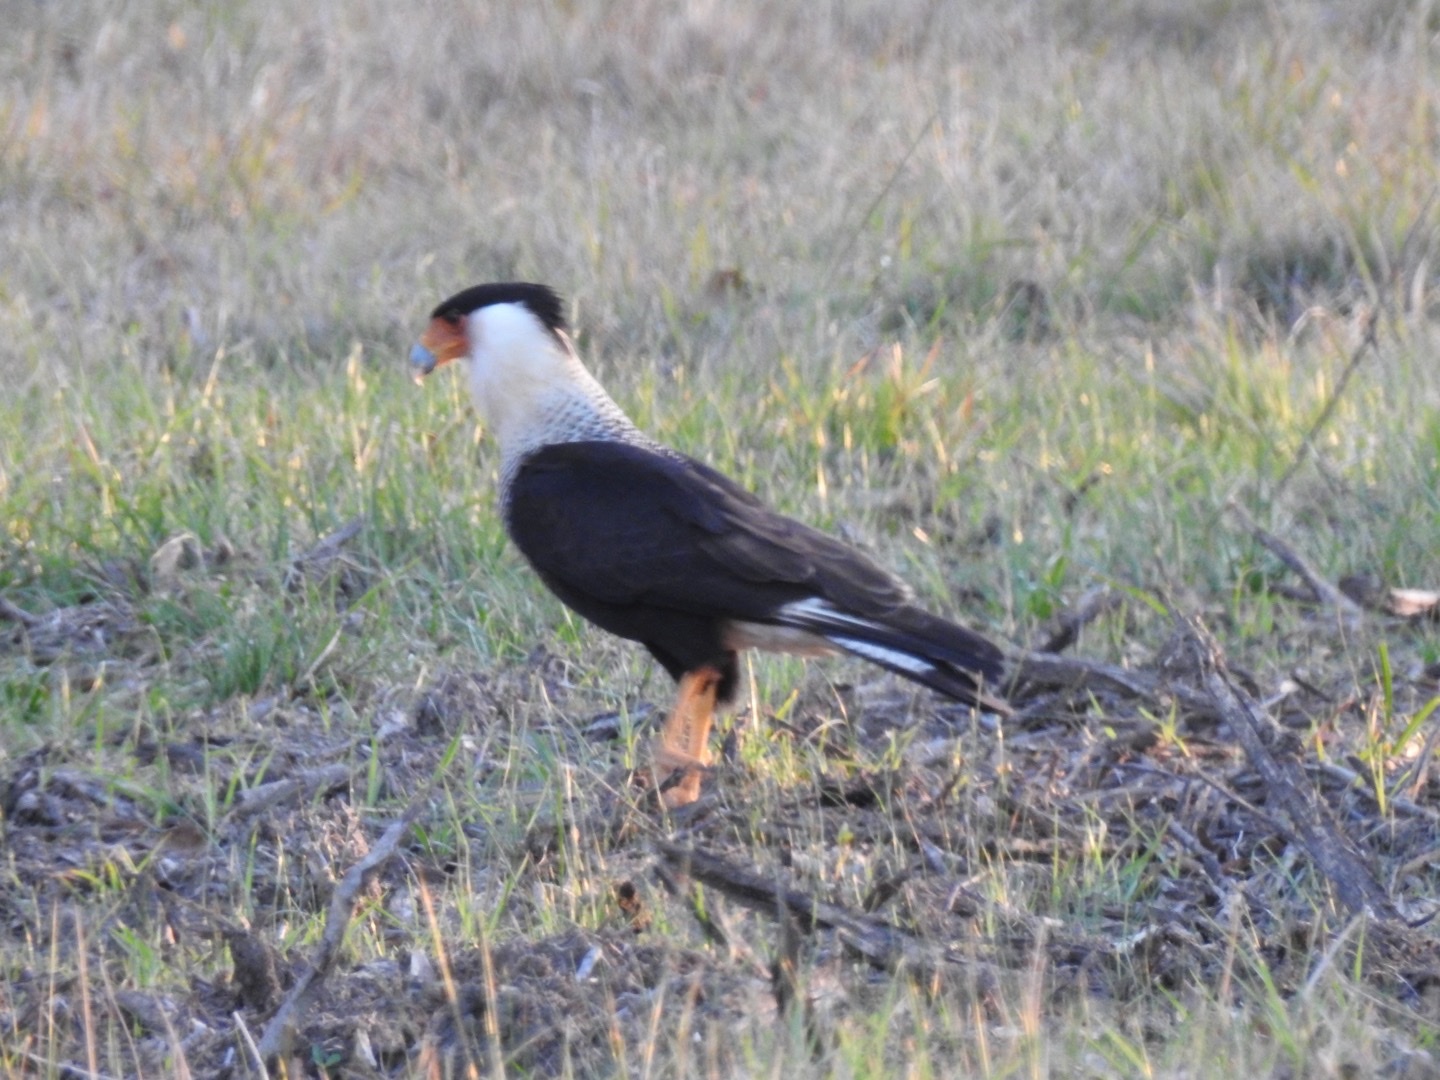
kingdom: Animalia
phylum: Chordata
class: Aves
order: Falconiformes
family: Falconidae
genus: Caracara
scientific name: Caracara plancus
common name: Southern caracara
